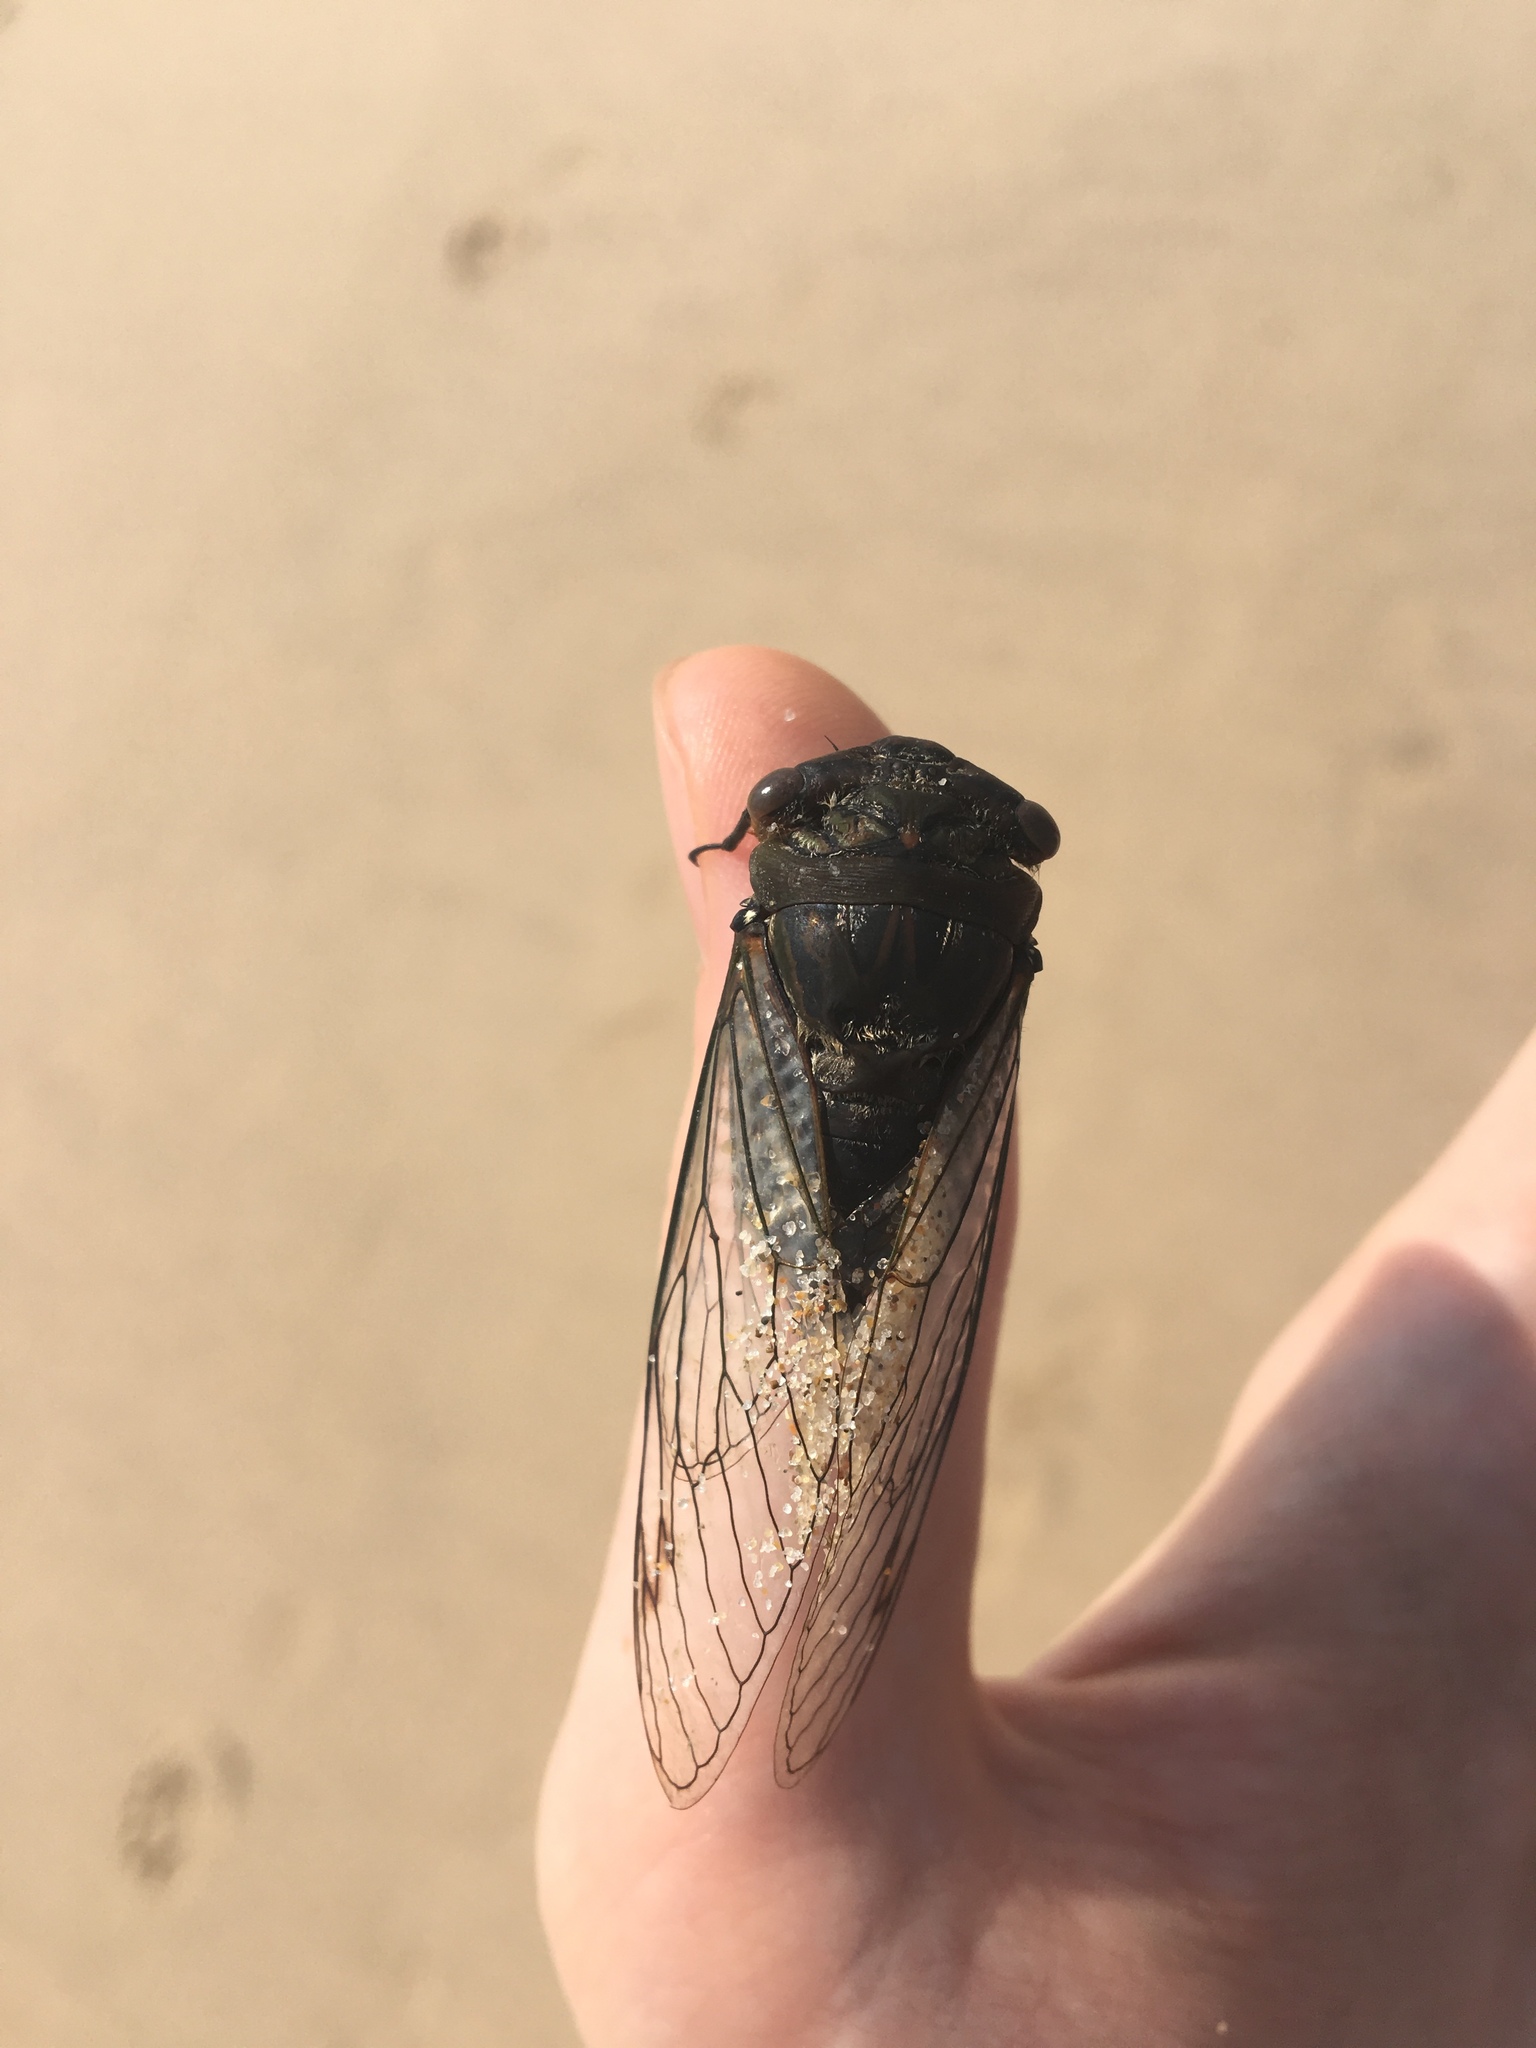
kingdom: Animalia
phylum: Arthropoda
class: Insecta
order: Hemiptera
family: Cicadidae
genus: Psaltoda
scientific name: Psaltoda plaga
